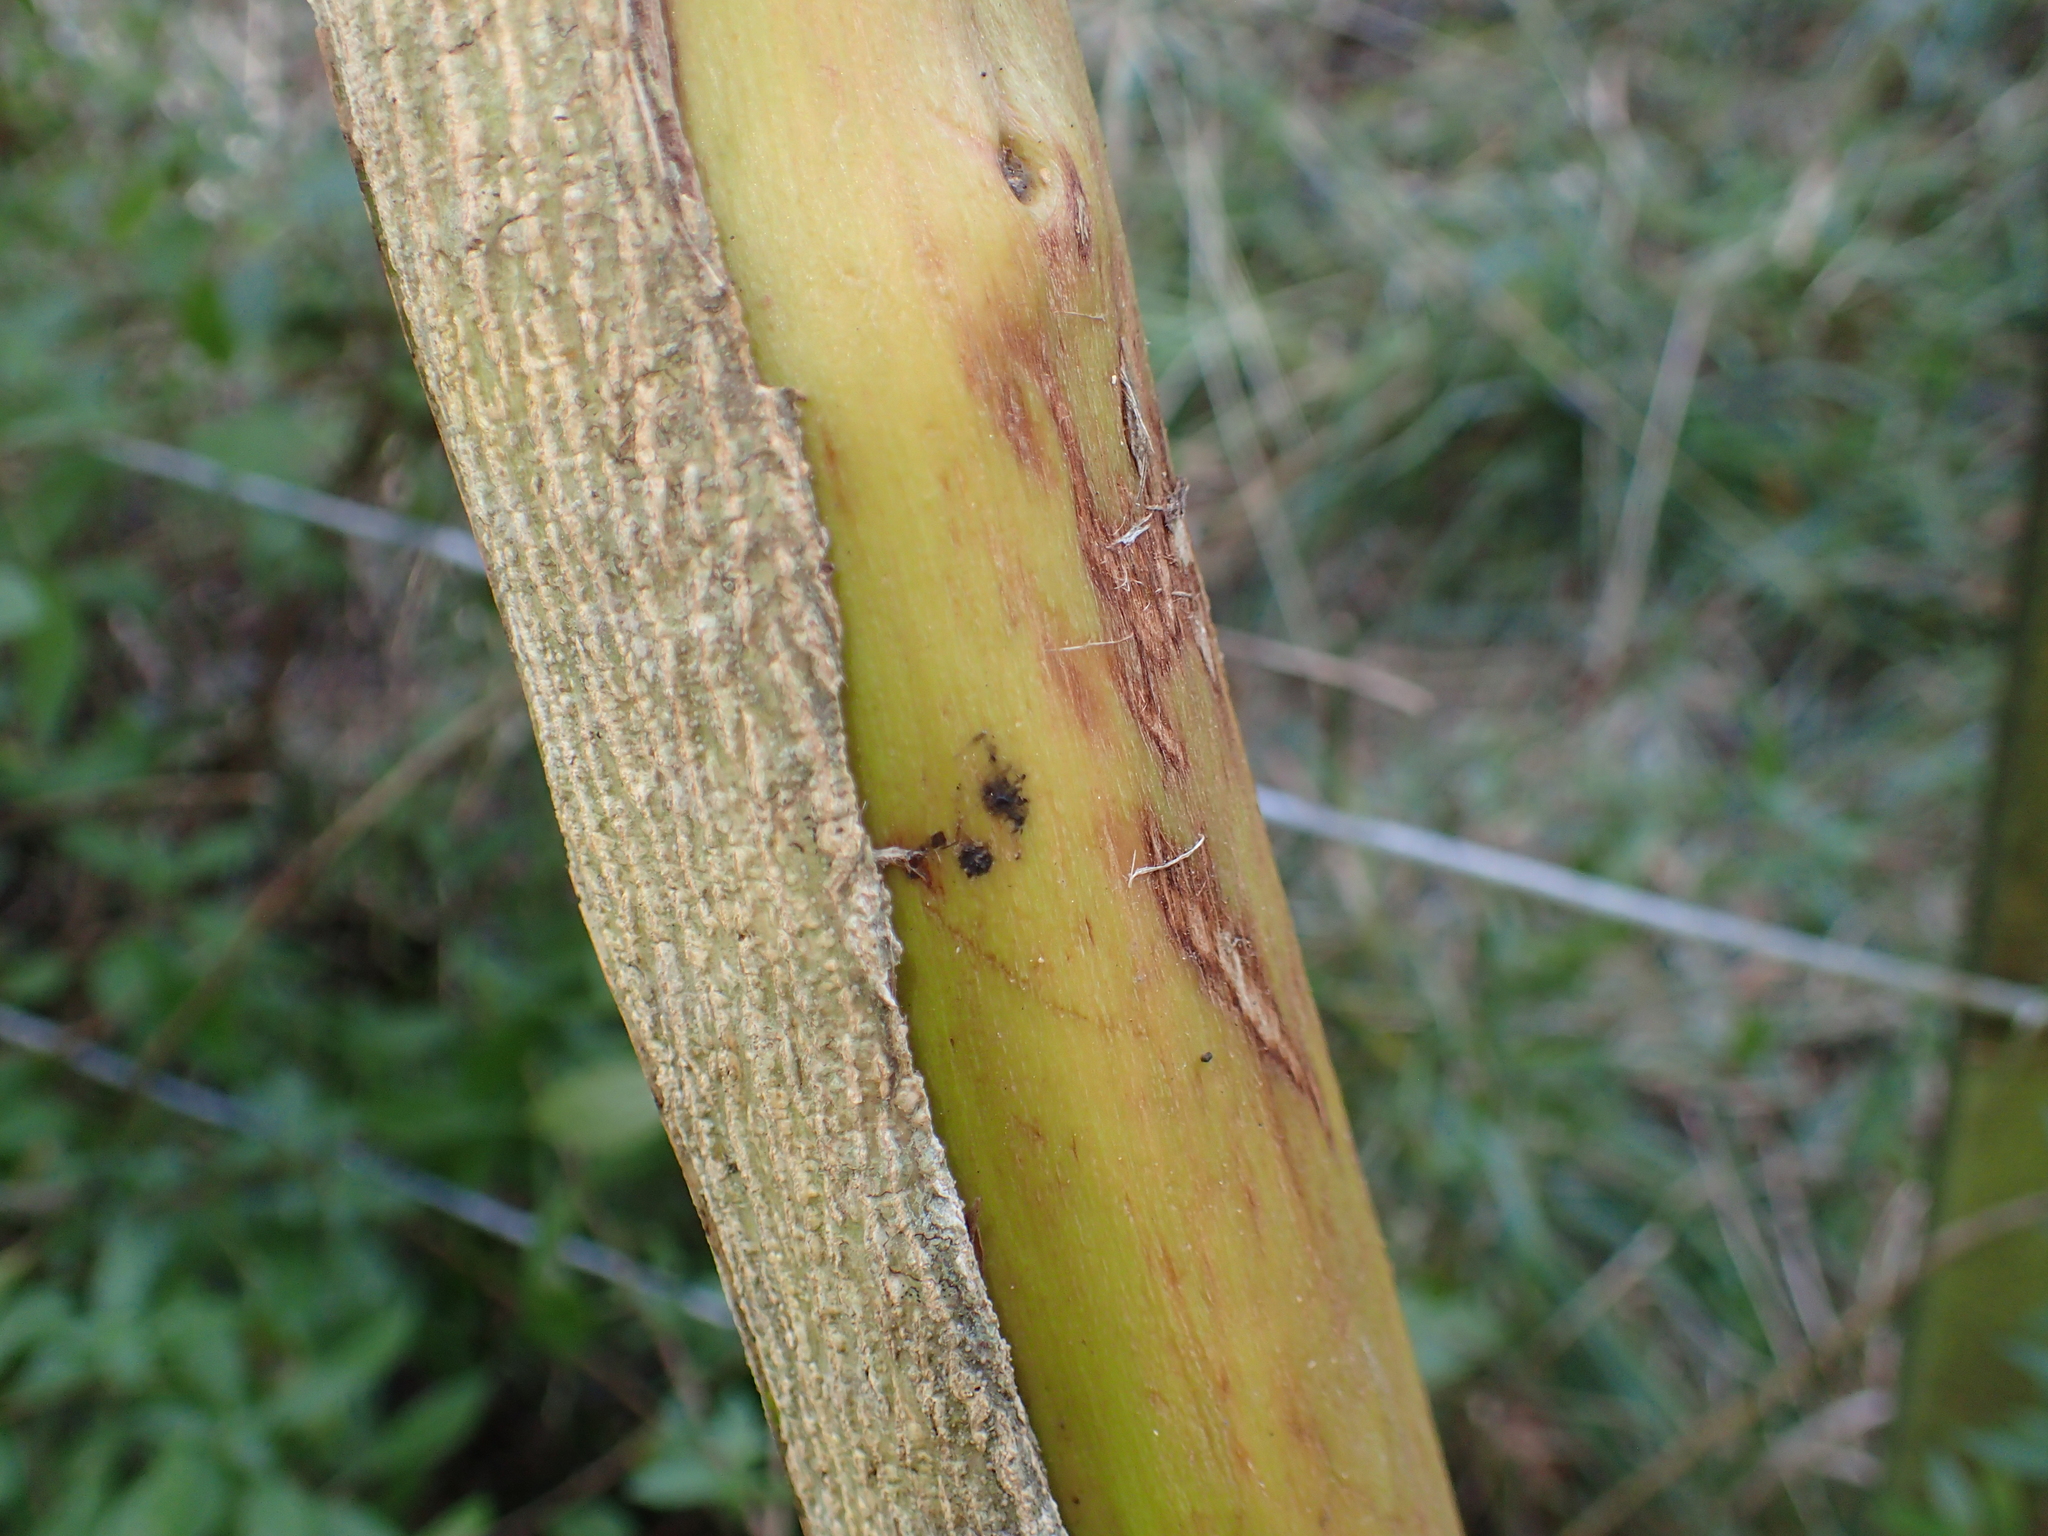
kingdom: Plantae
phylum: Tracheophyta
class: Magnoliopsida
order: Fabales
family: Fabaceae
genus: Cytisus
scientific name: Cytisus scoparius
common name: Scotch broom
